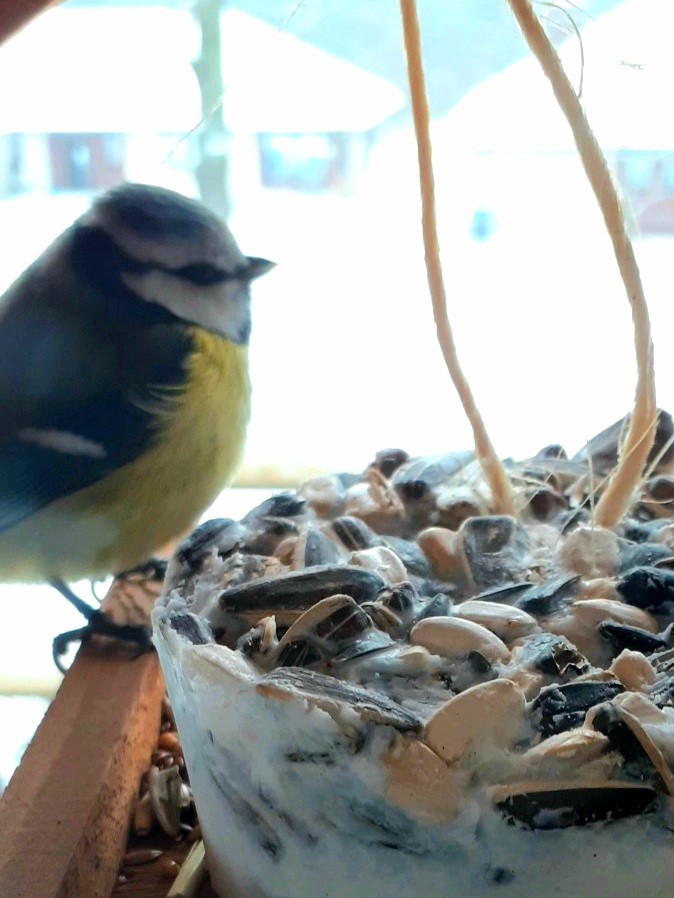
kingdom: Animalia
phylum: Chordata
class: Aves
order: Passeriformes
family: Paridae
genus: Cyanistes
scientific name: Cyanistes caeruleus
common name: Eurasian blue tit
